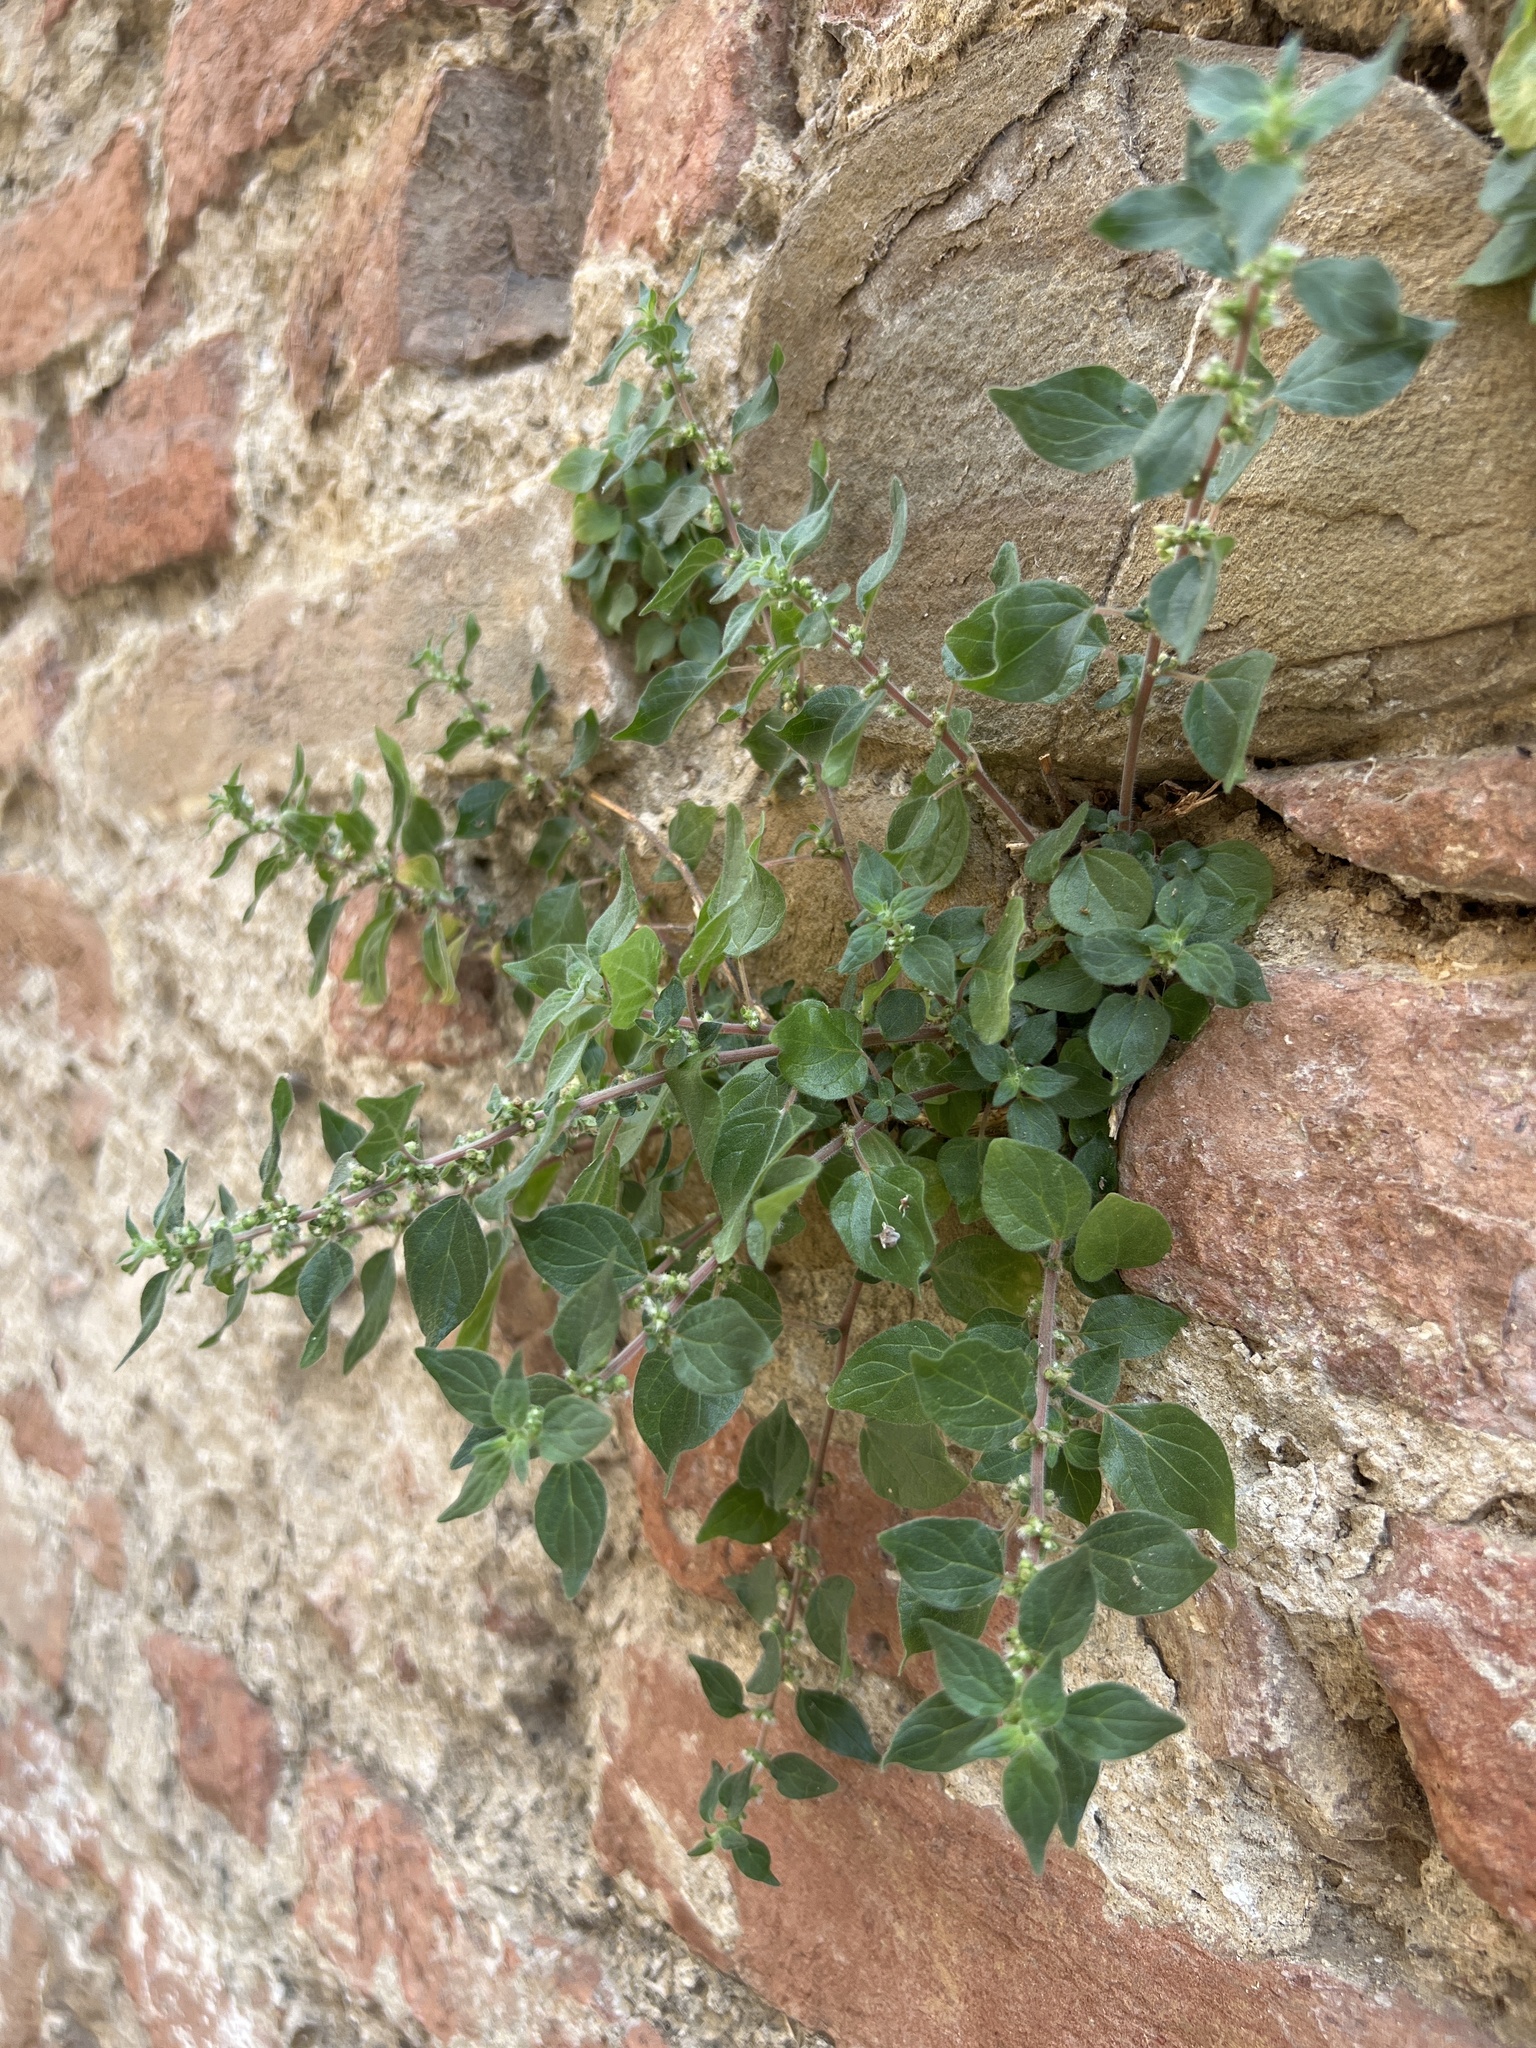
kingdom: Plantae
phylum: Tracheophyta
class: Magnoliopsida
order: Rosales
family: Urticaceae
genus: Parietaria
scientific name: Parietaria judaica
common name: Pellitory-of-the-wall
